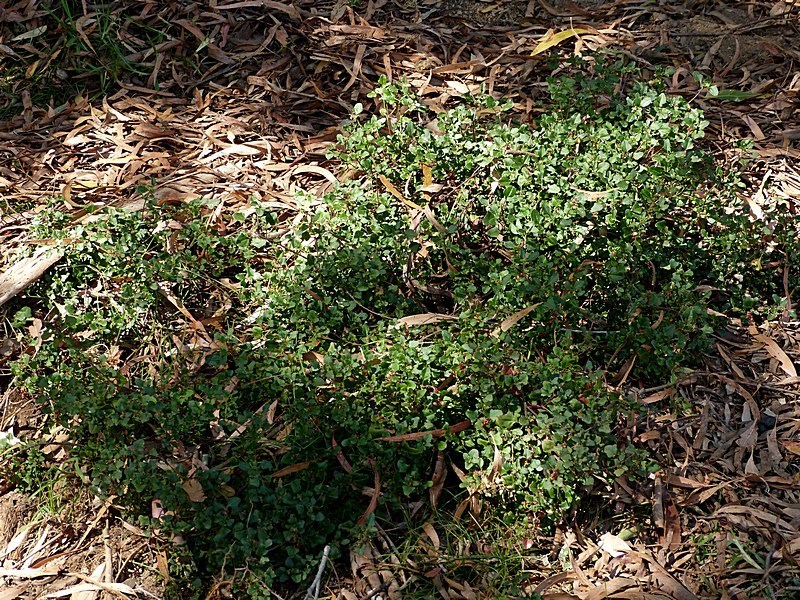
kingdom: Plantae
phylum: Tracheophyta
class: Magnoliopsida
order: Caryophyllales
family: Amaranthaceae
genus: Chenopodium
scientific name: Chenopodium robertianum
